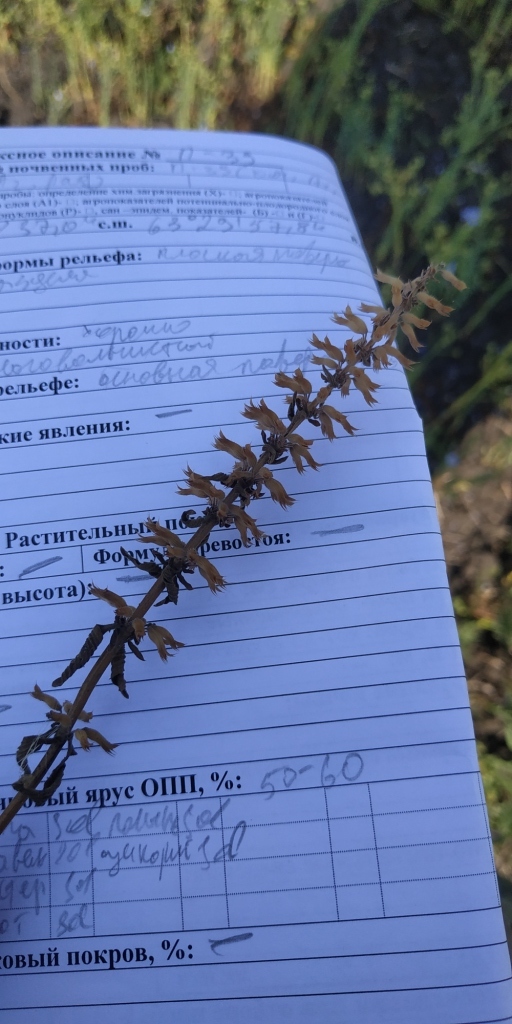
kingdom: Plantae
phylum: Tracheophyta
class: Magnoliopsida
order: Lamiales
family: Lamiaceae
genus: Dracocephalum
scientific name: Dracocephalum thymiflorum
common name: Thymeleaf dragonhead
